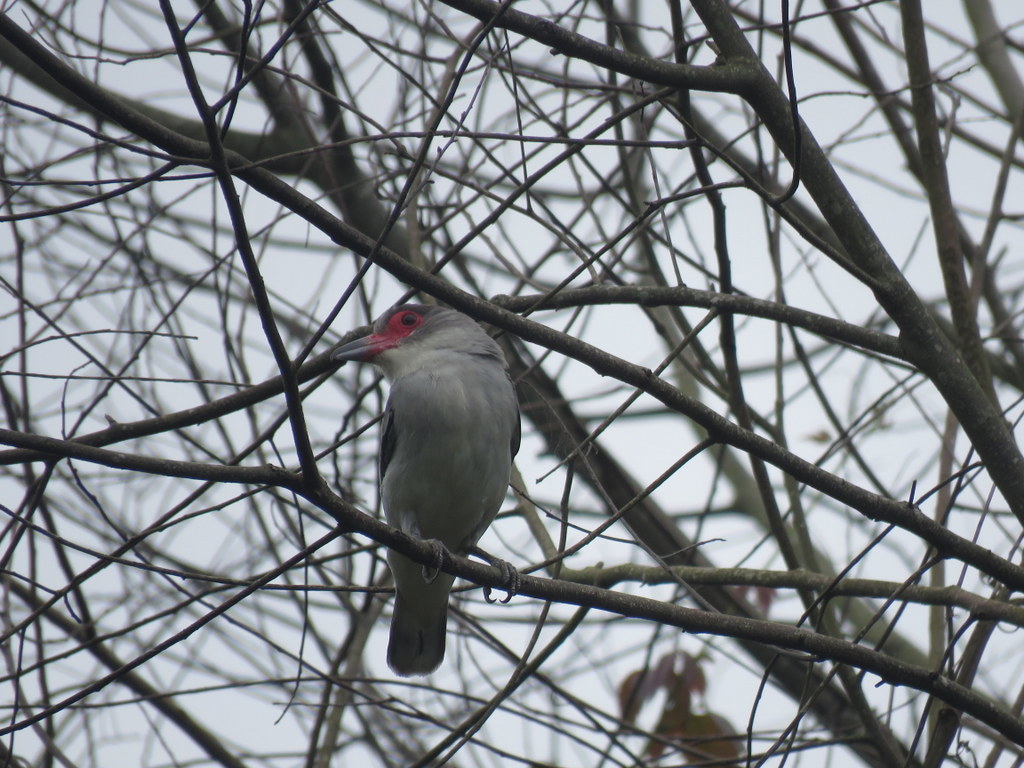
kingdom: Animalia
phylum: Chordata
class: Aves
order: Passeriformes
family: Cotingidae
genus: Tityra
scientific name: Tityra semifasciata
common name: Masked tityra
